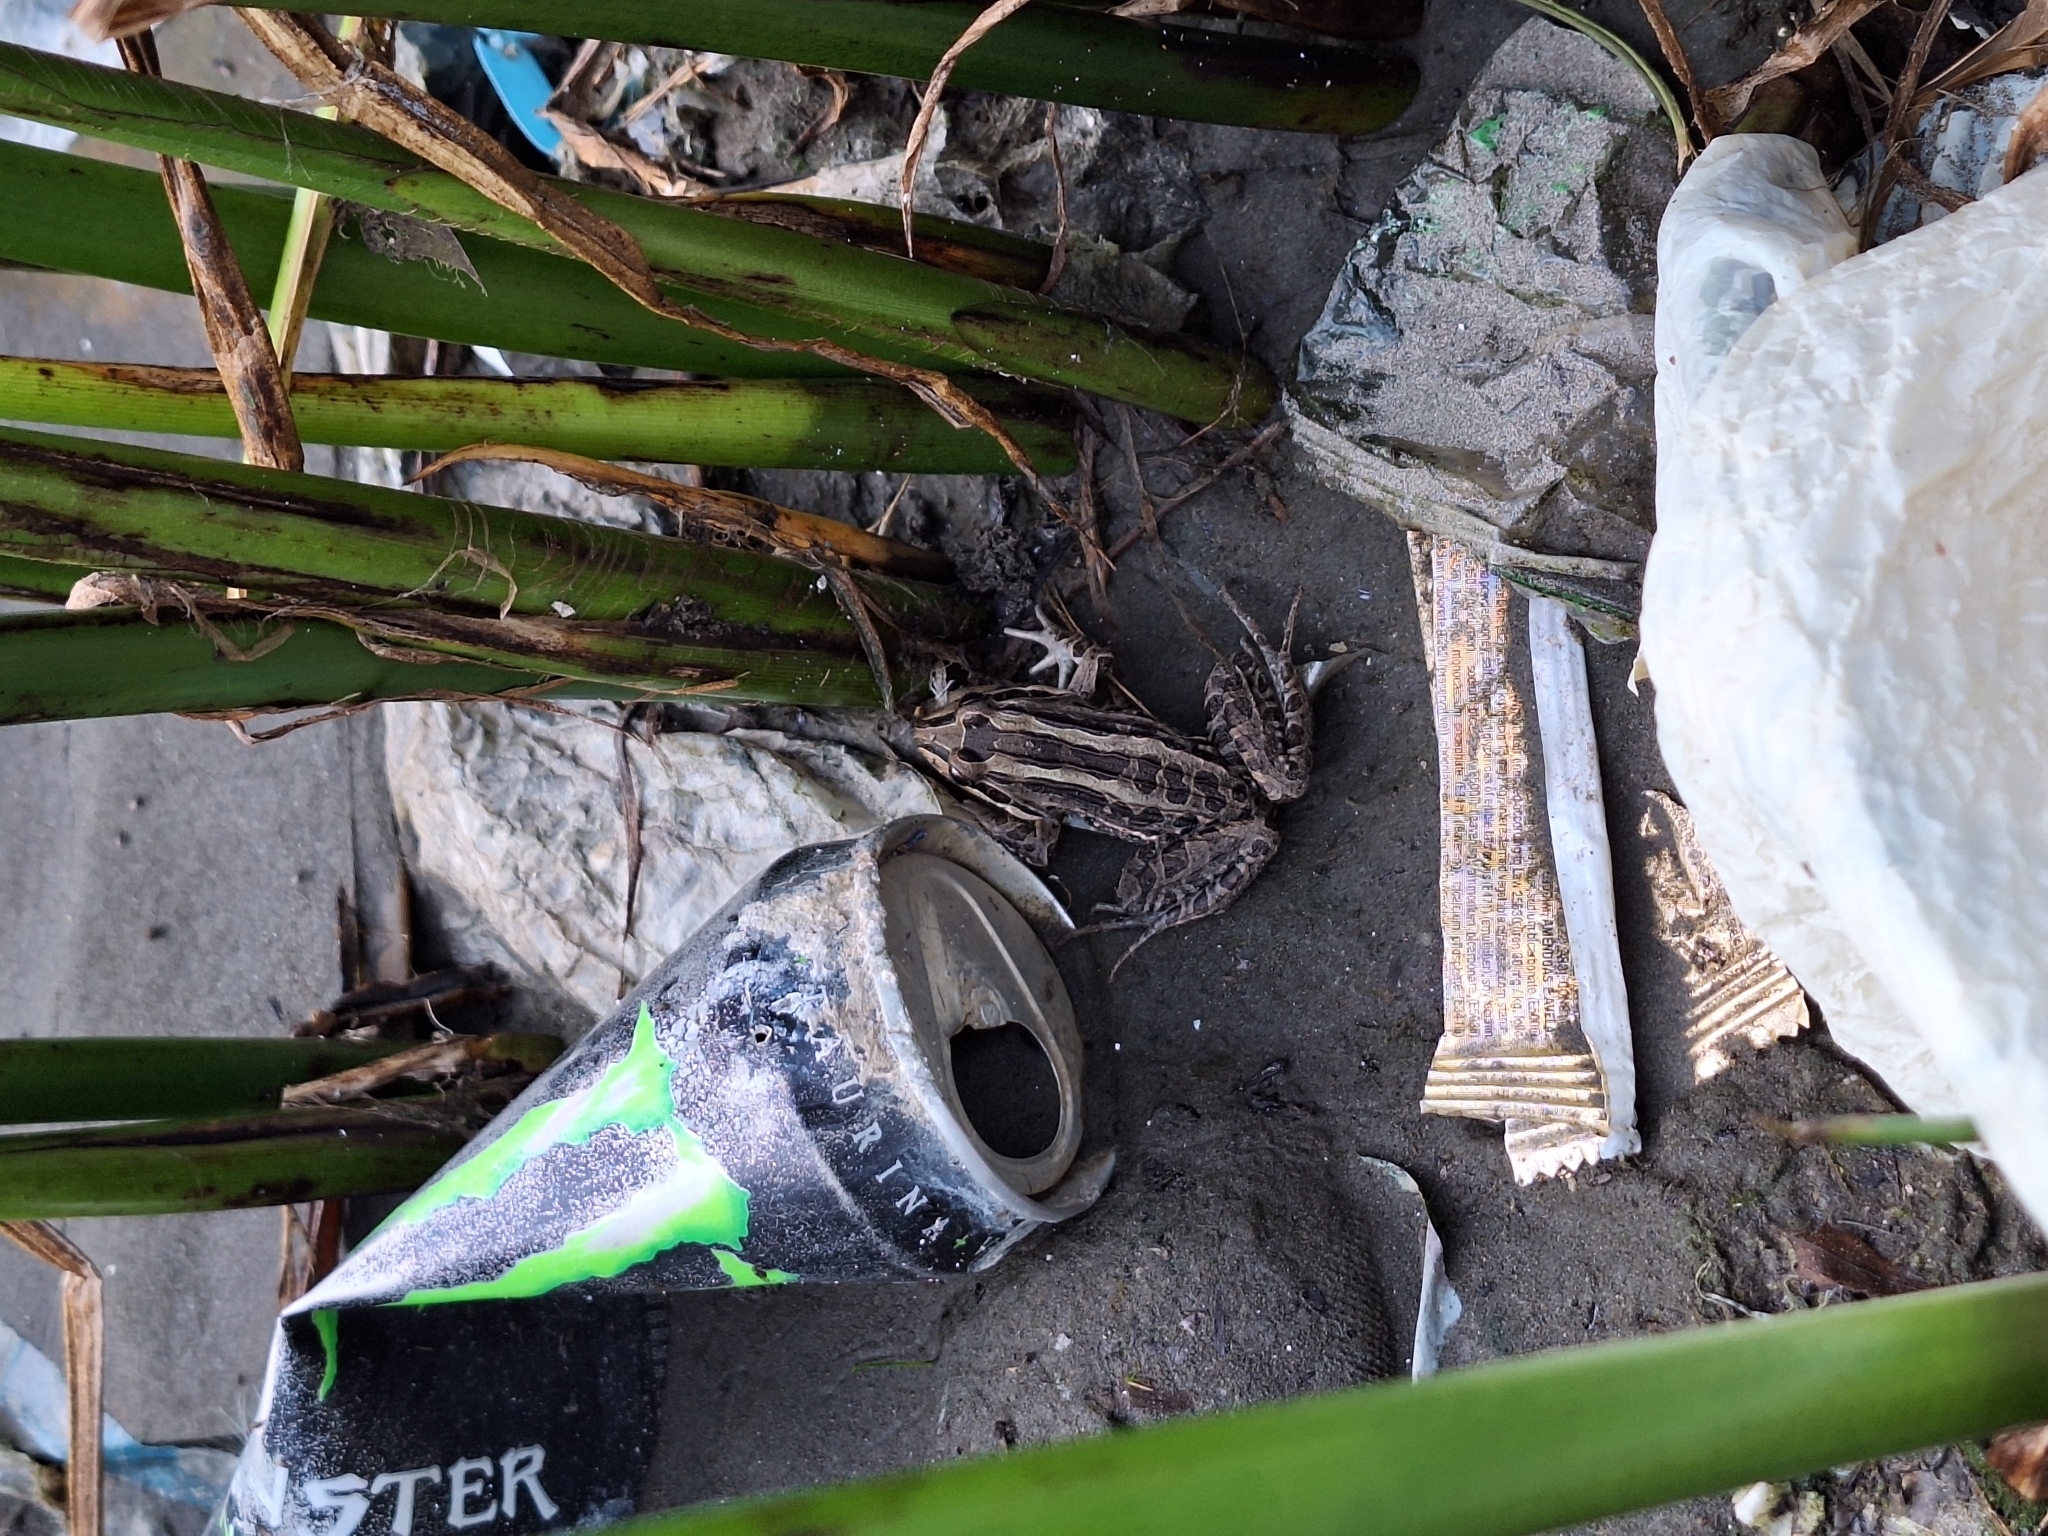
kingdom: Animalia
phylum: Chordata
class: Amphibia
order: Anura
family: Leptodactylidae
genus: Leptodactylus
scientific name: Leptodactylus luctator
